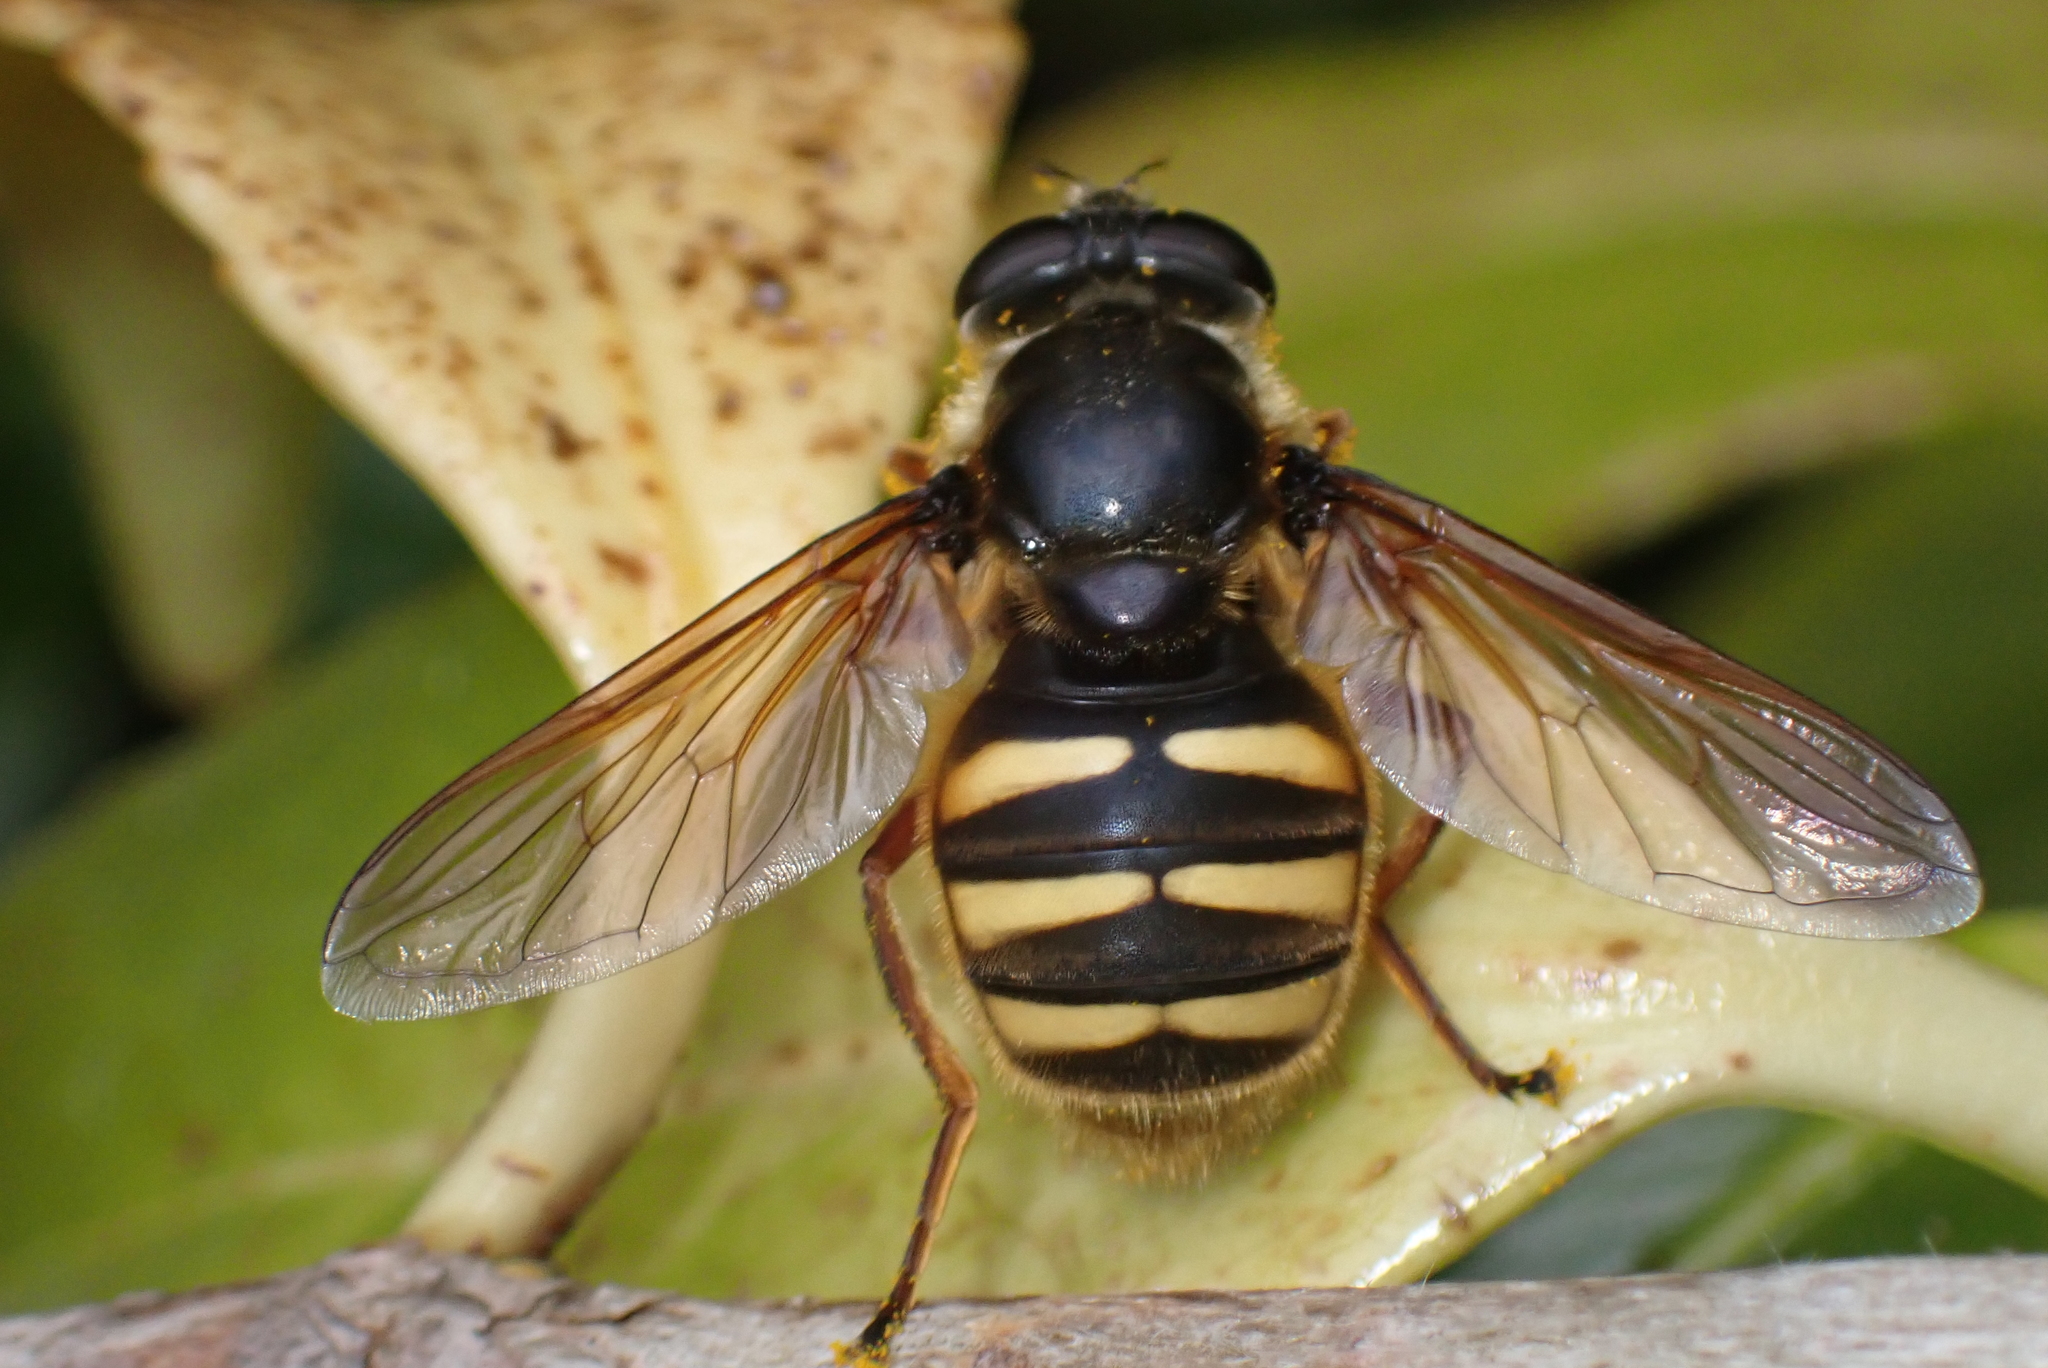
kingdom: Animalia
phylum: Arthropoda
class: Insecta
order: Diptera
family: Syrphidae
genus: Sericomyia
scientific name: Sericomyia silentis
